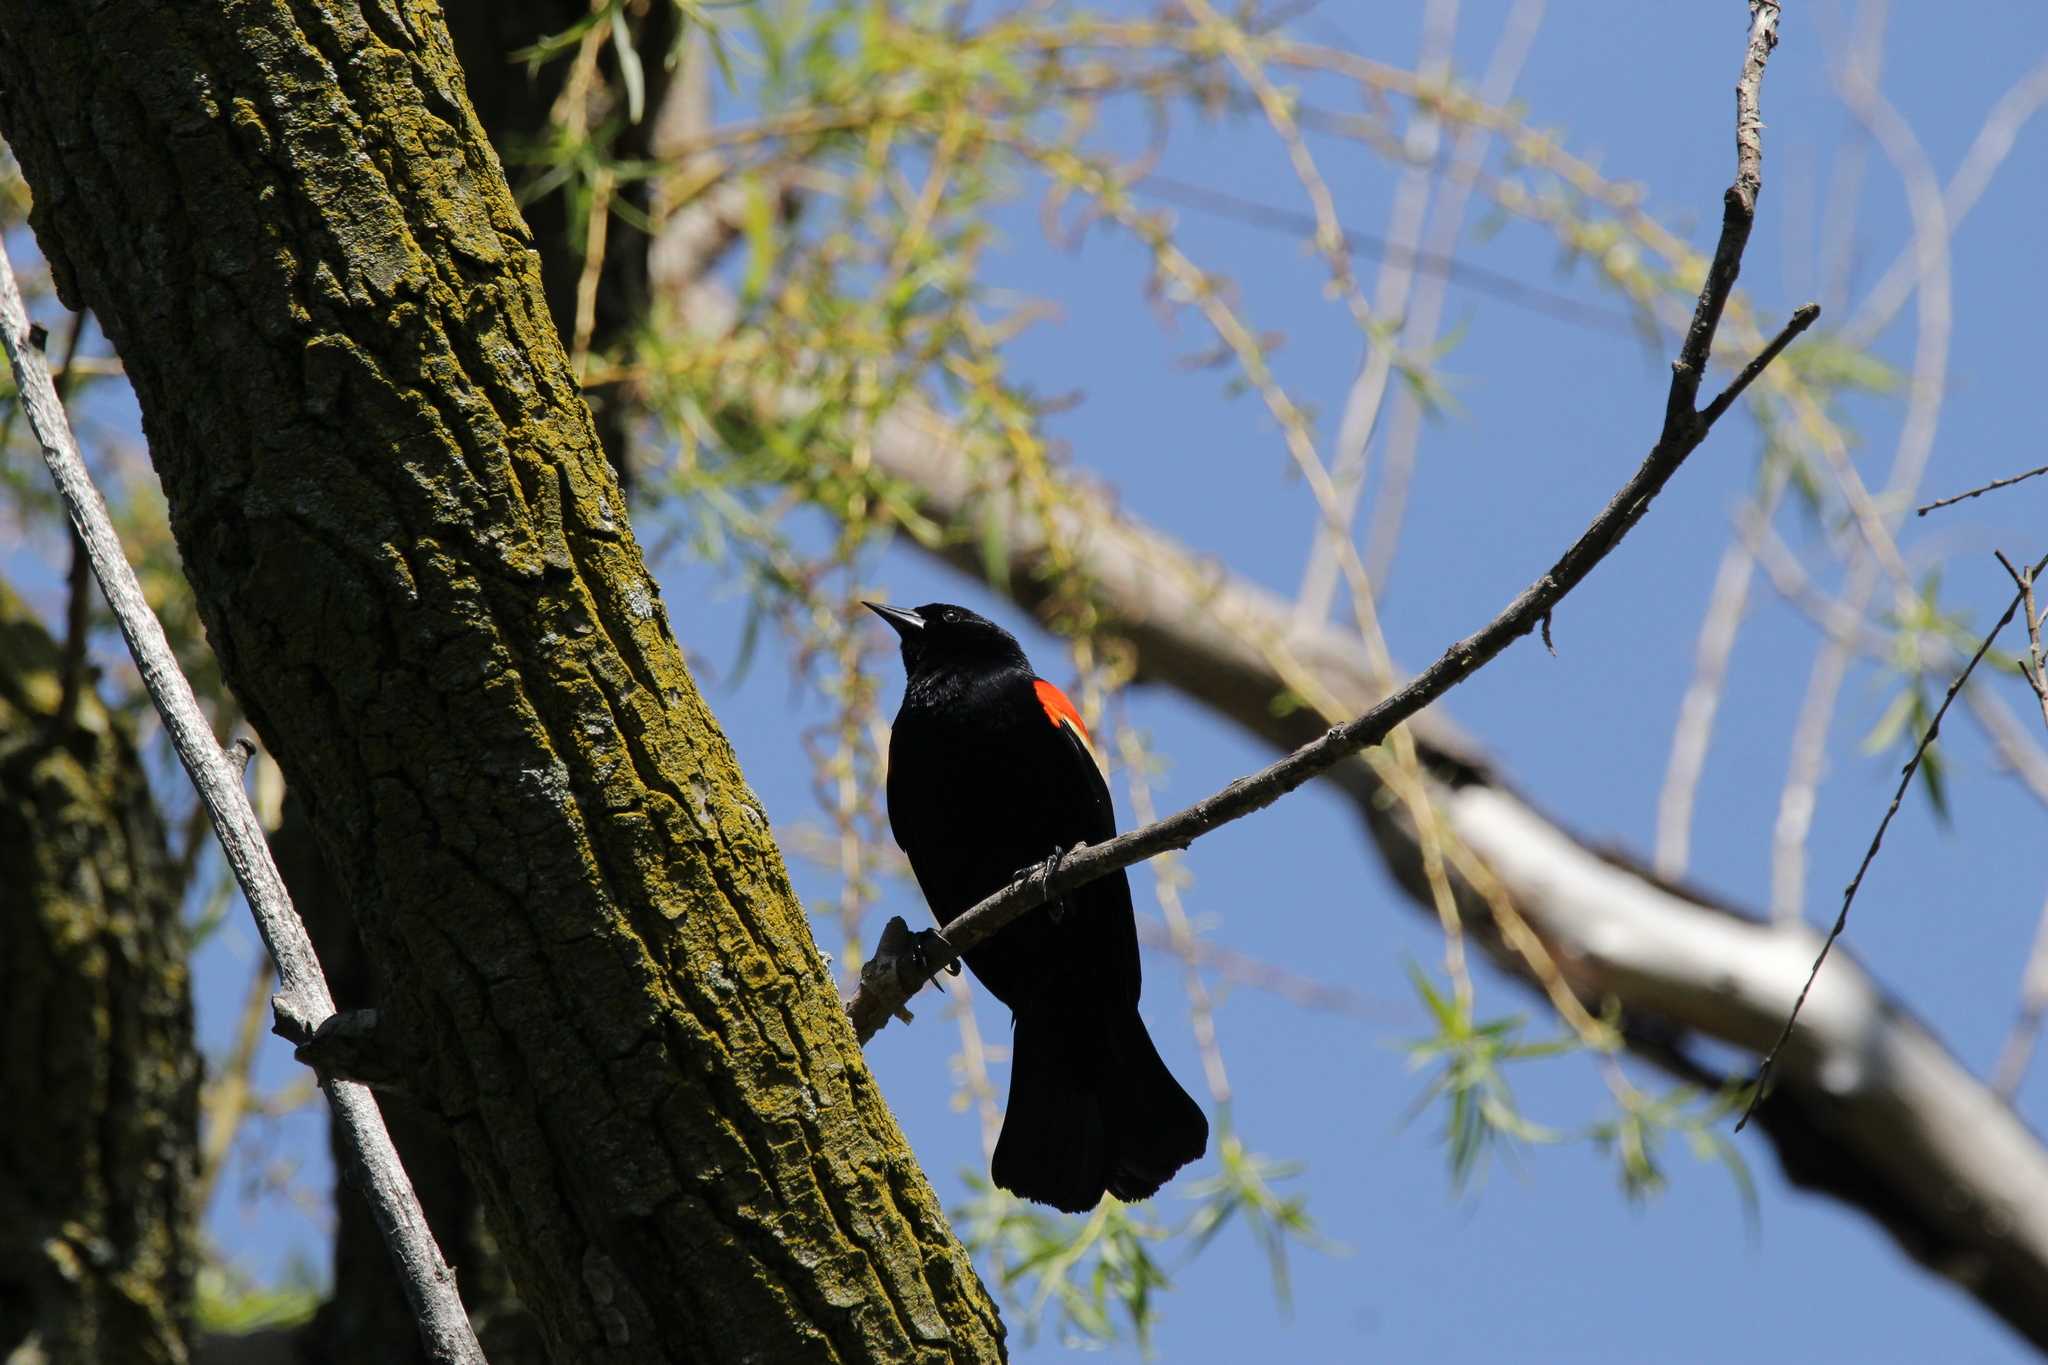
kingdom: Animalia
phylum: Chordata
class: Aves
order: Passeriformes
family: Icteridae
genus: Agelaius
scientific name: Agelaius phoeniceus
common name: Red-winged blackbird
